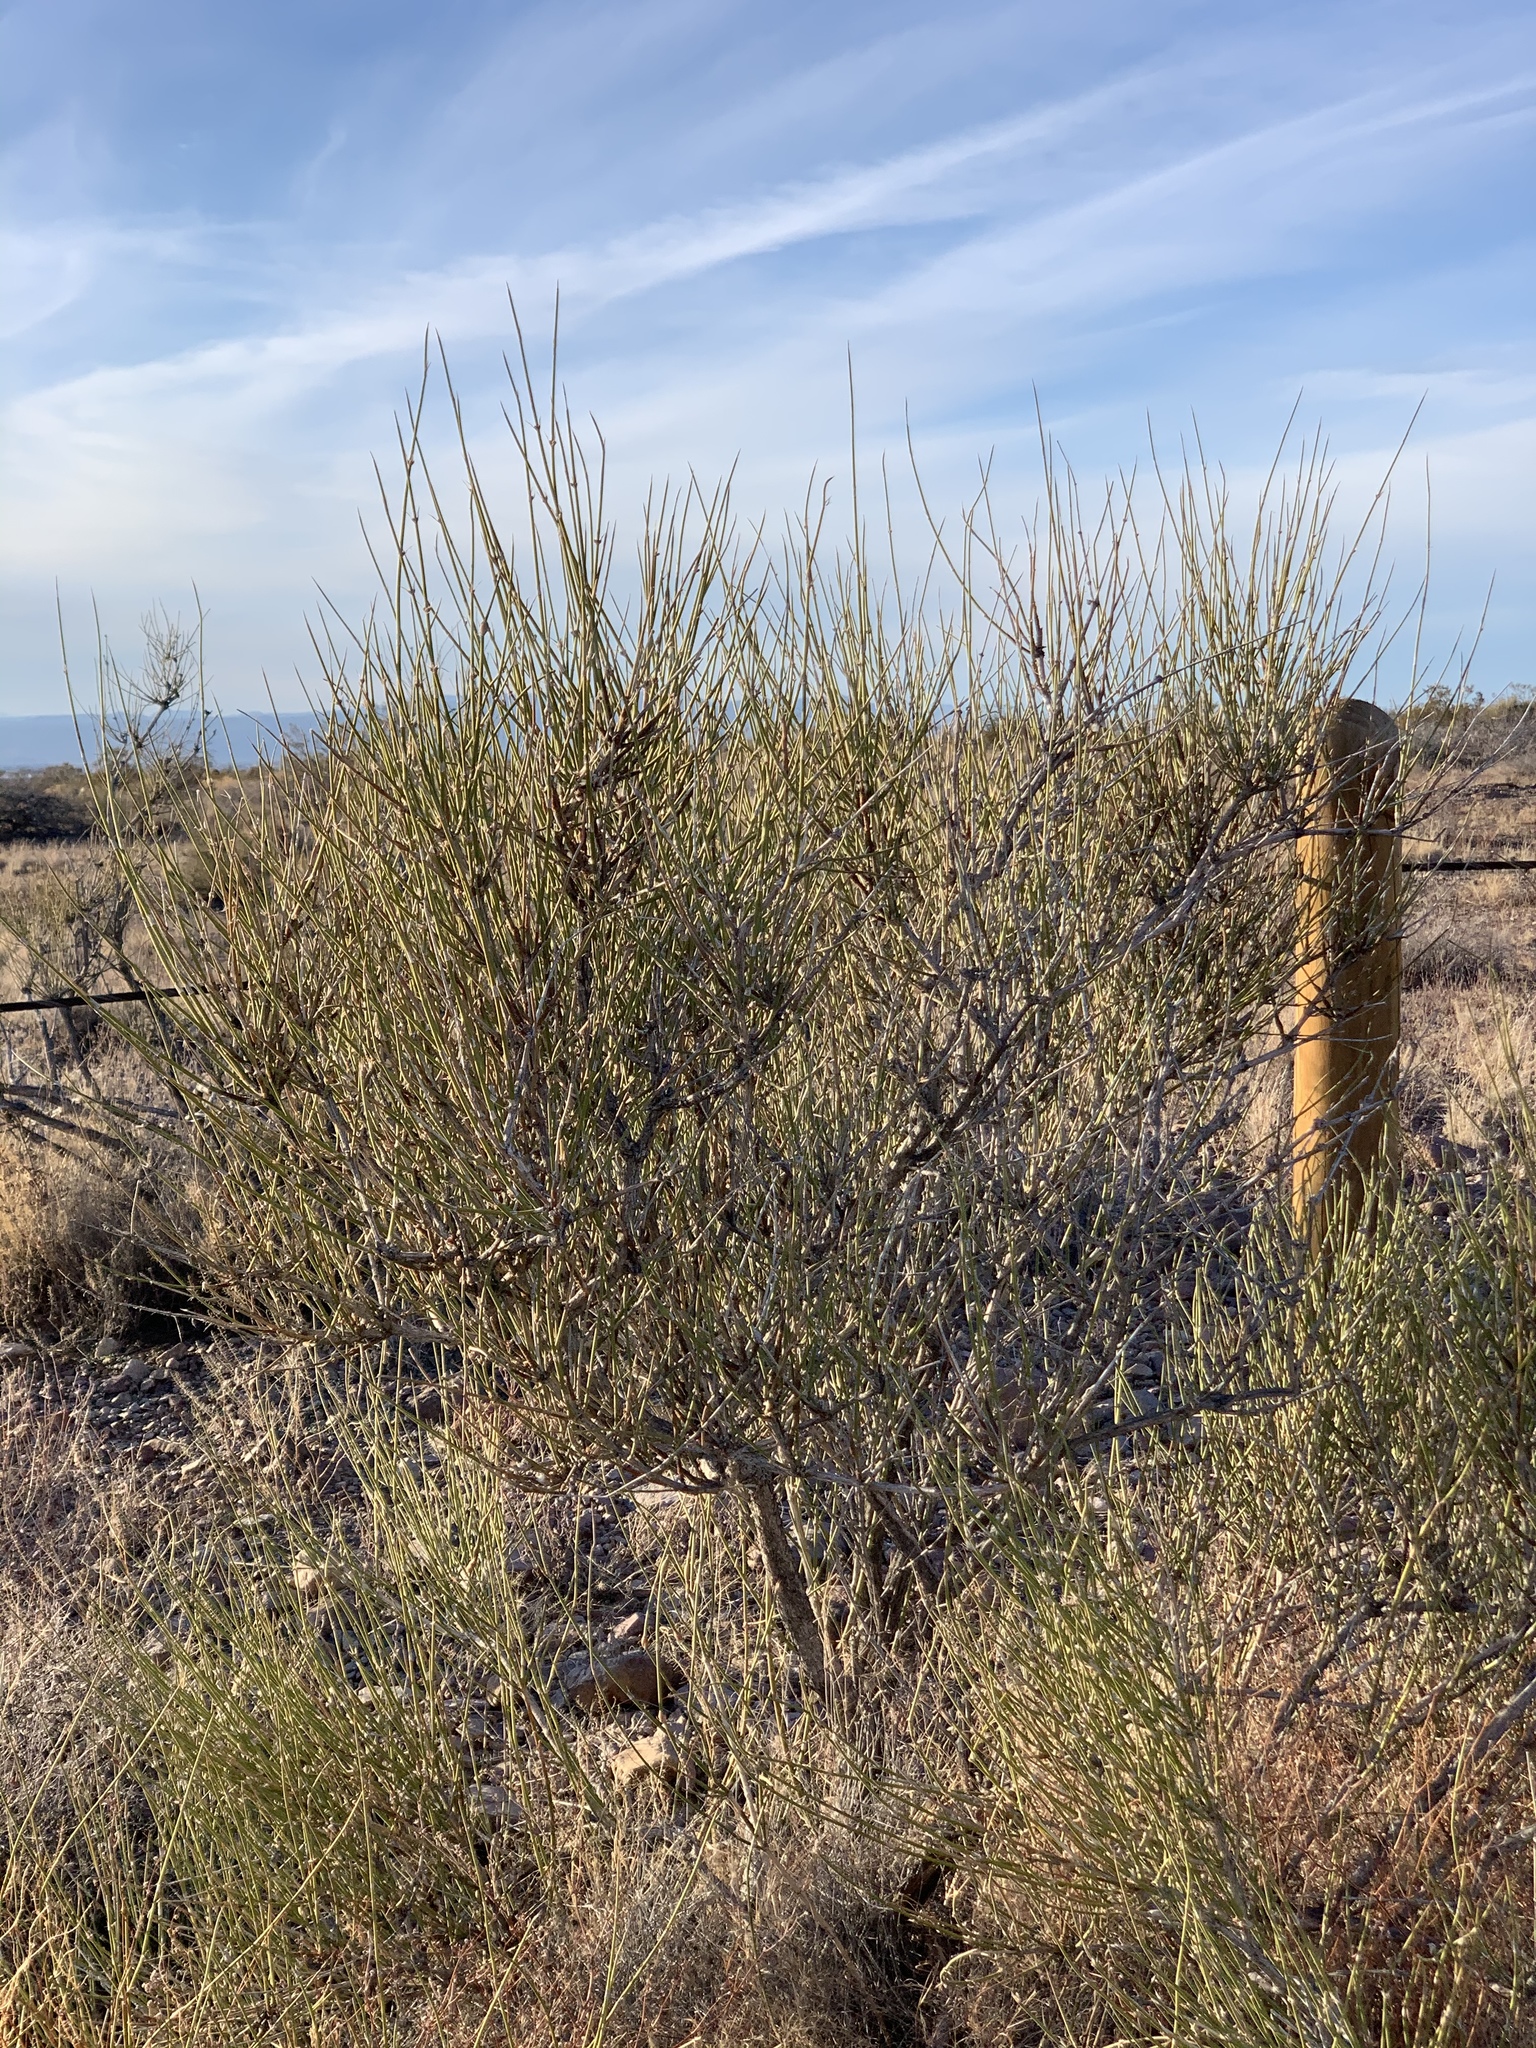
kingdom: Plantae
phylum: Tracheophyta
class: Gnetopsida
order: Ephedrales
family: Ephedraceae
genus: Ephedra
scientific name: Ephedra trifurca
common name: Mexican-tea
